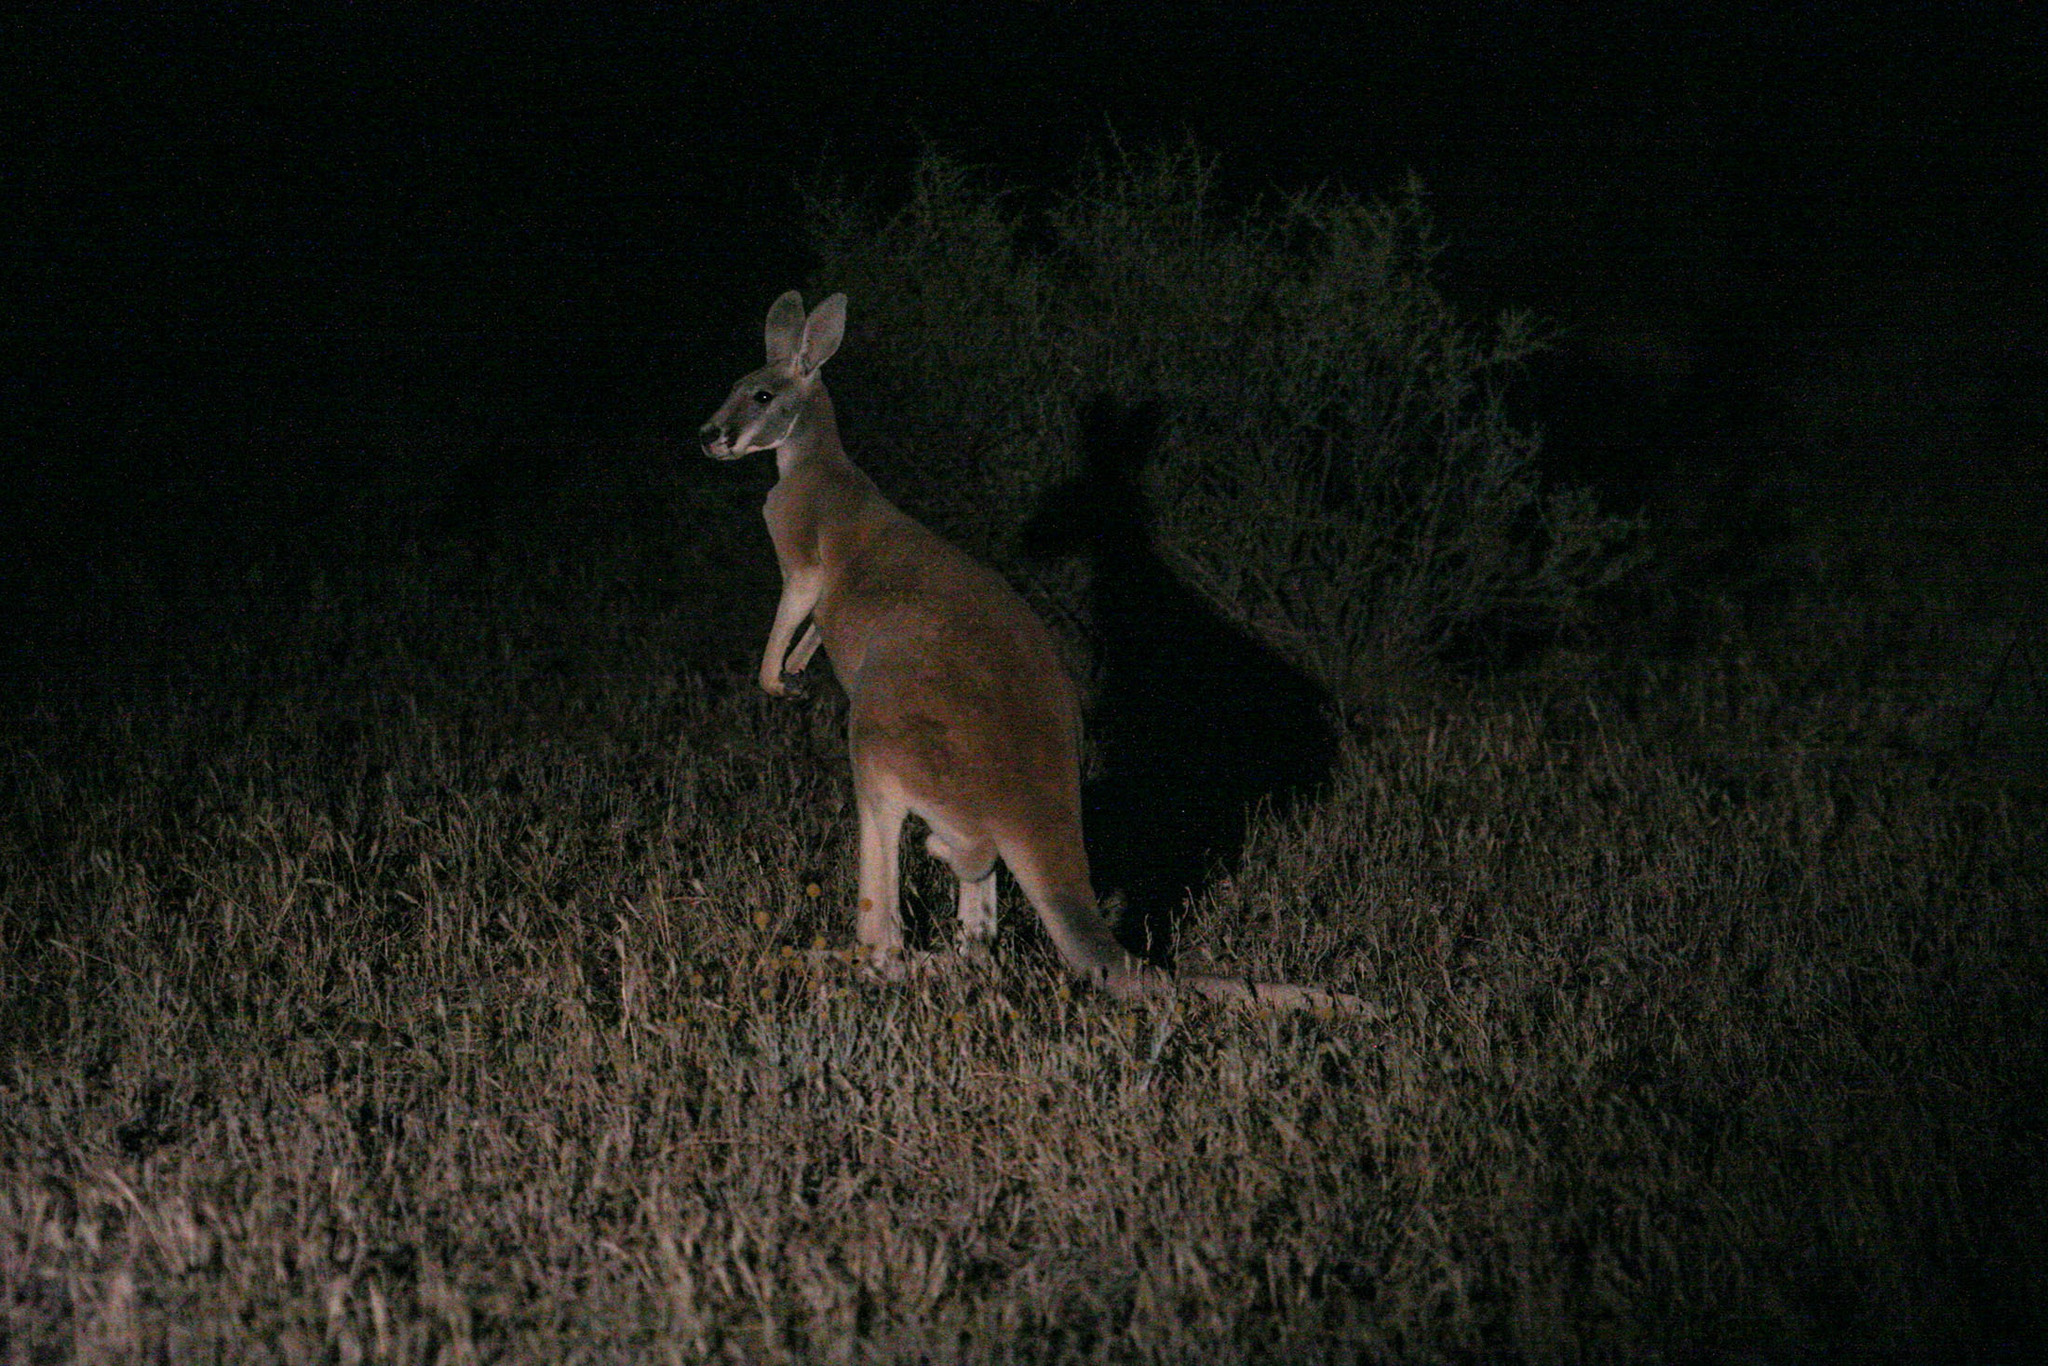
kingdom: Animalia
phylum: Chordata
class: Mammalia
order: Diprotodontia
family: Macropodidae
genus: Macropus
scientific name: Macropus rufus
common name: Red kangaroo
